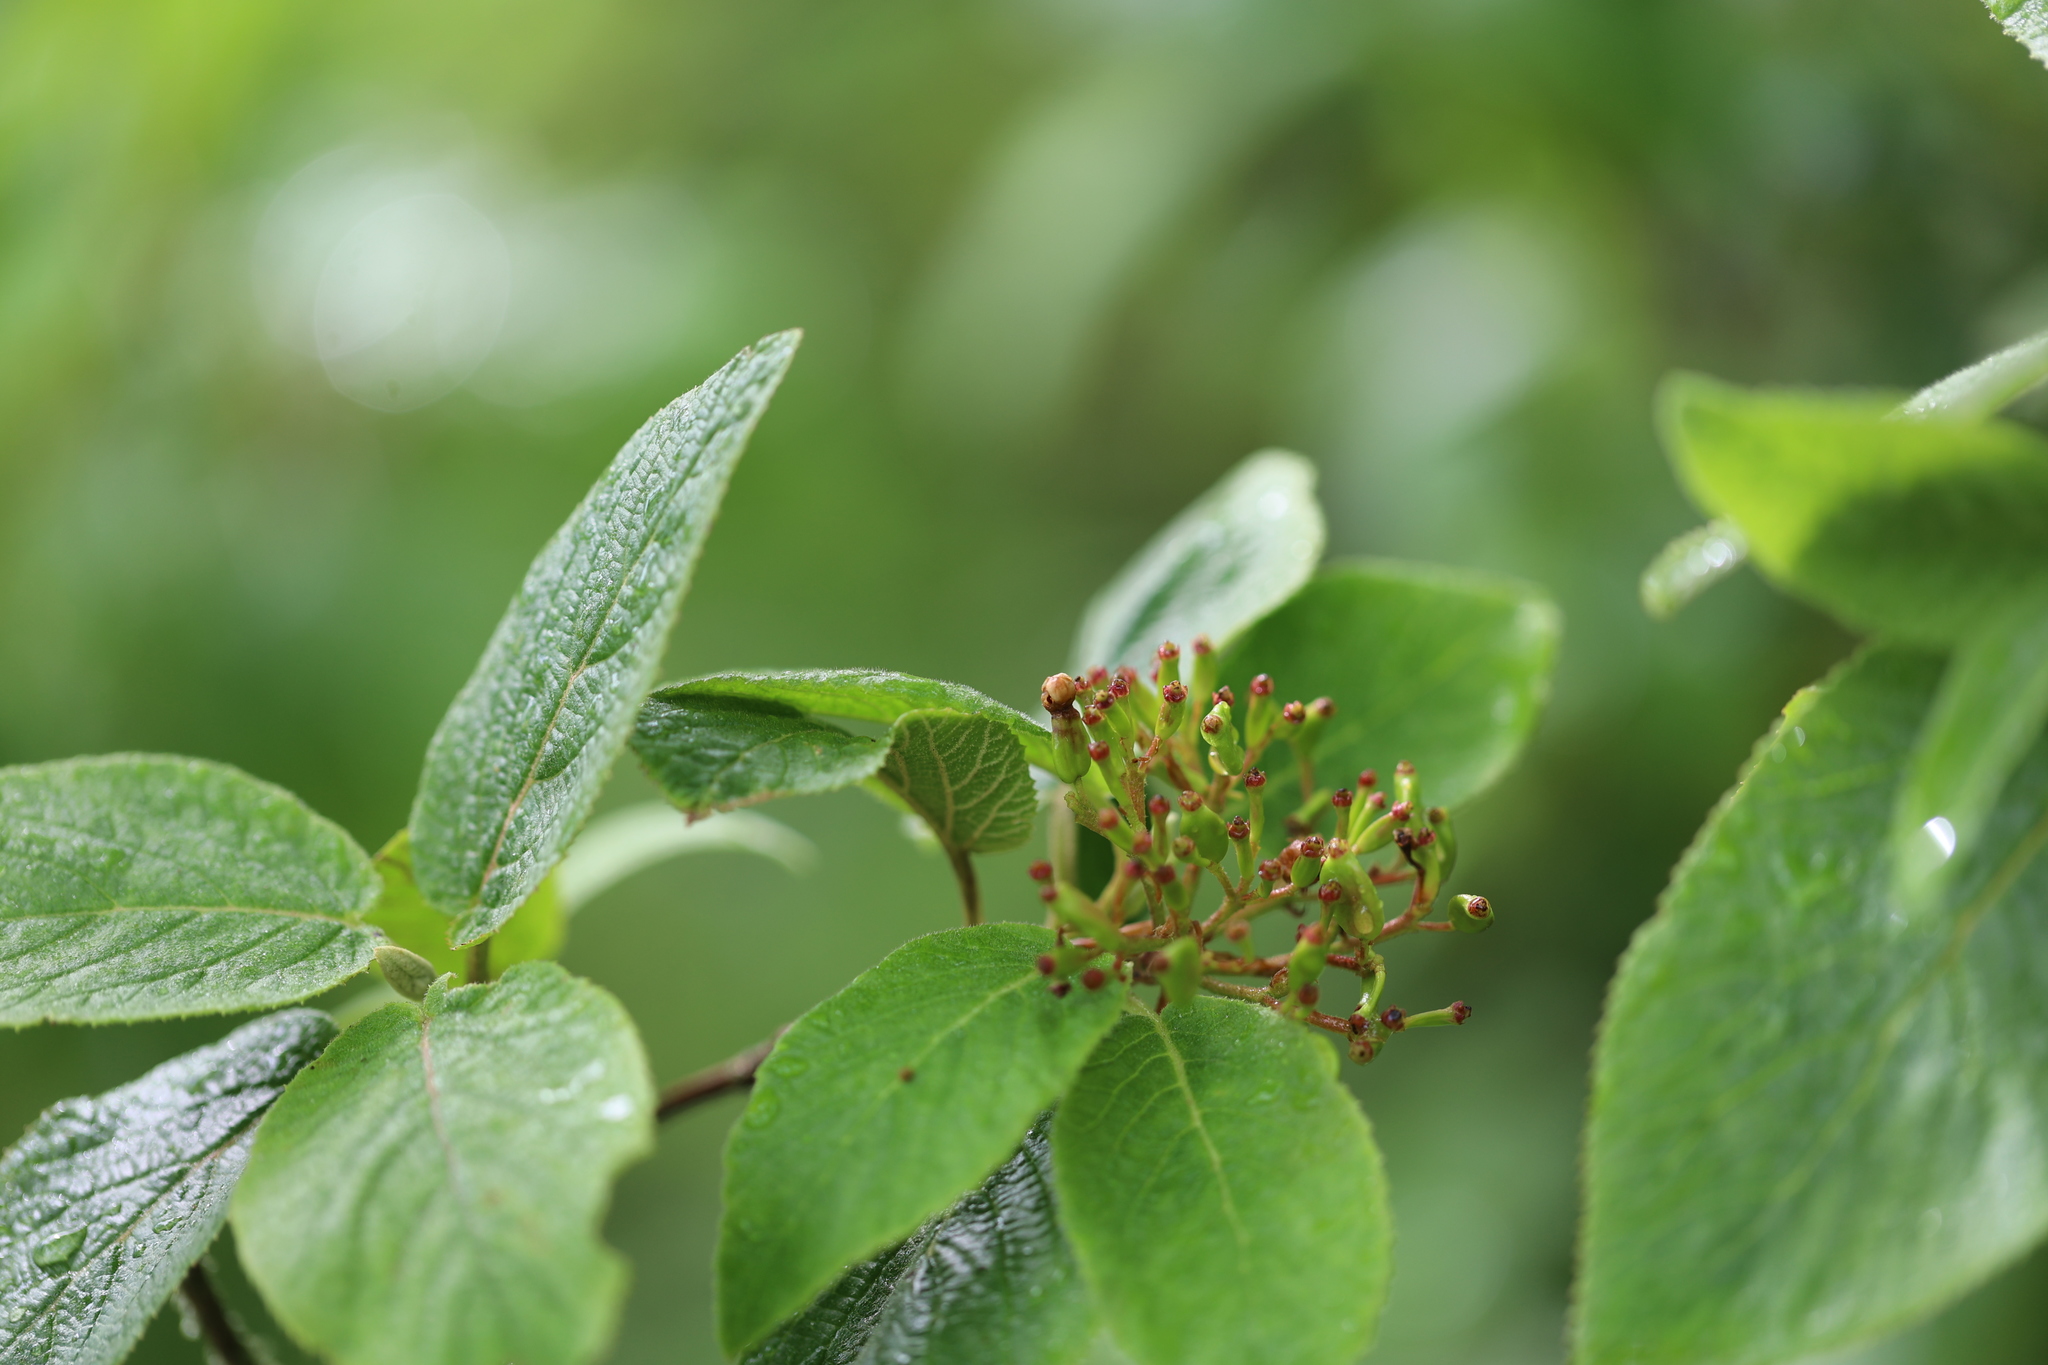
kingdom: Plantae
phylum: Tracheophyta
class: Magnoliopsida
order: Dipsacales
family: Viburnaceae
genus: Viburnum
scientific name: Viburnum lantana
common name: Wayfaring tree
